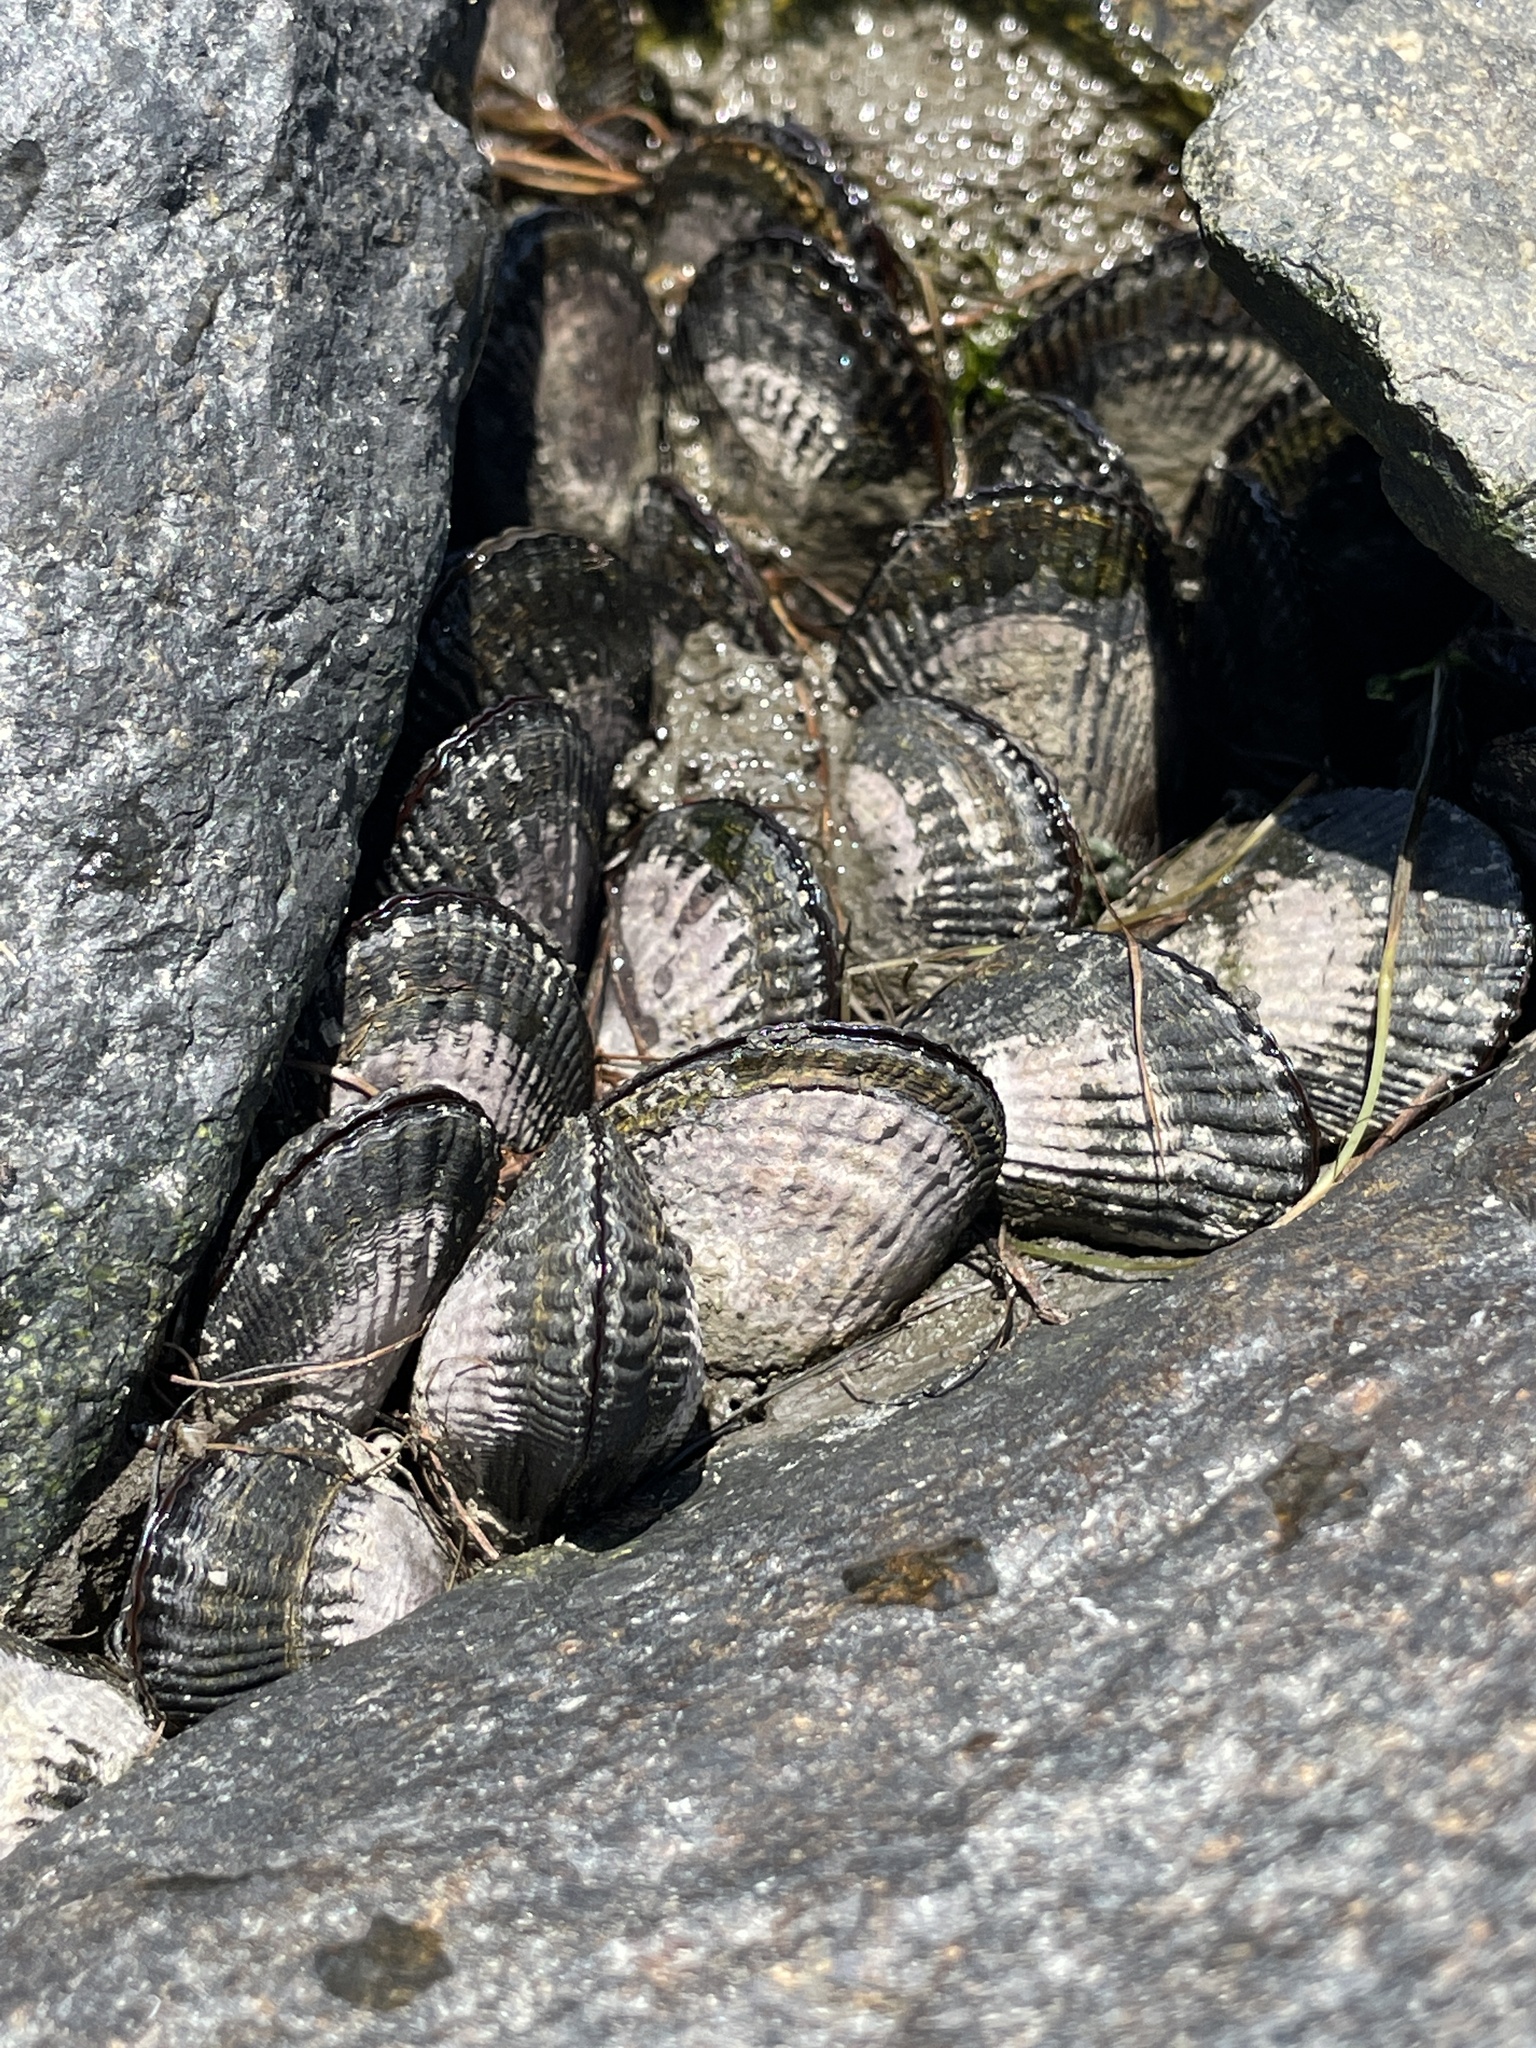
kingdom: Animalia
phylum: Mollusca
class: Bivalvia
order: Mytilida
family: Mytilidae
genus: Geukensia
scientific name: Geukensia demissa
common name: Ribbed mussel
